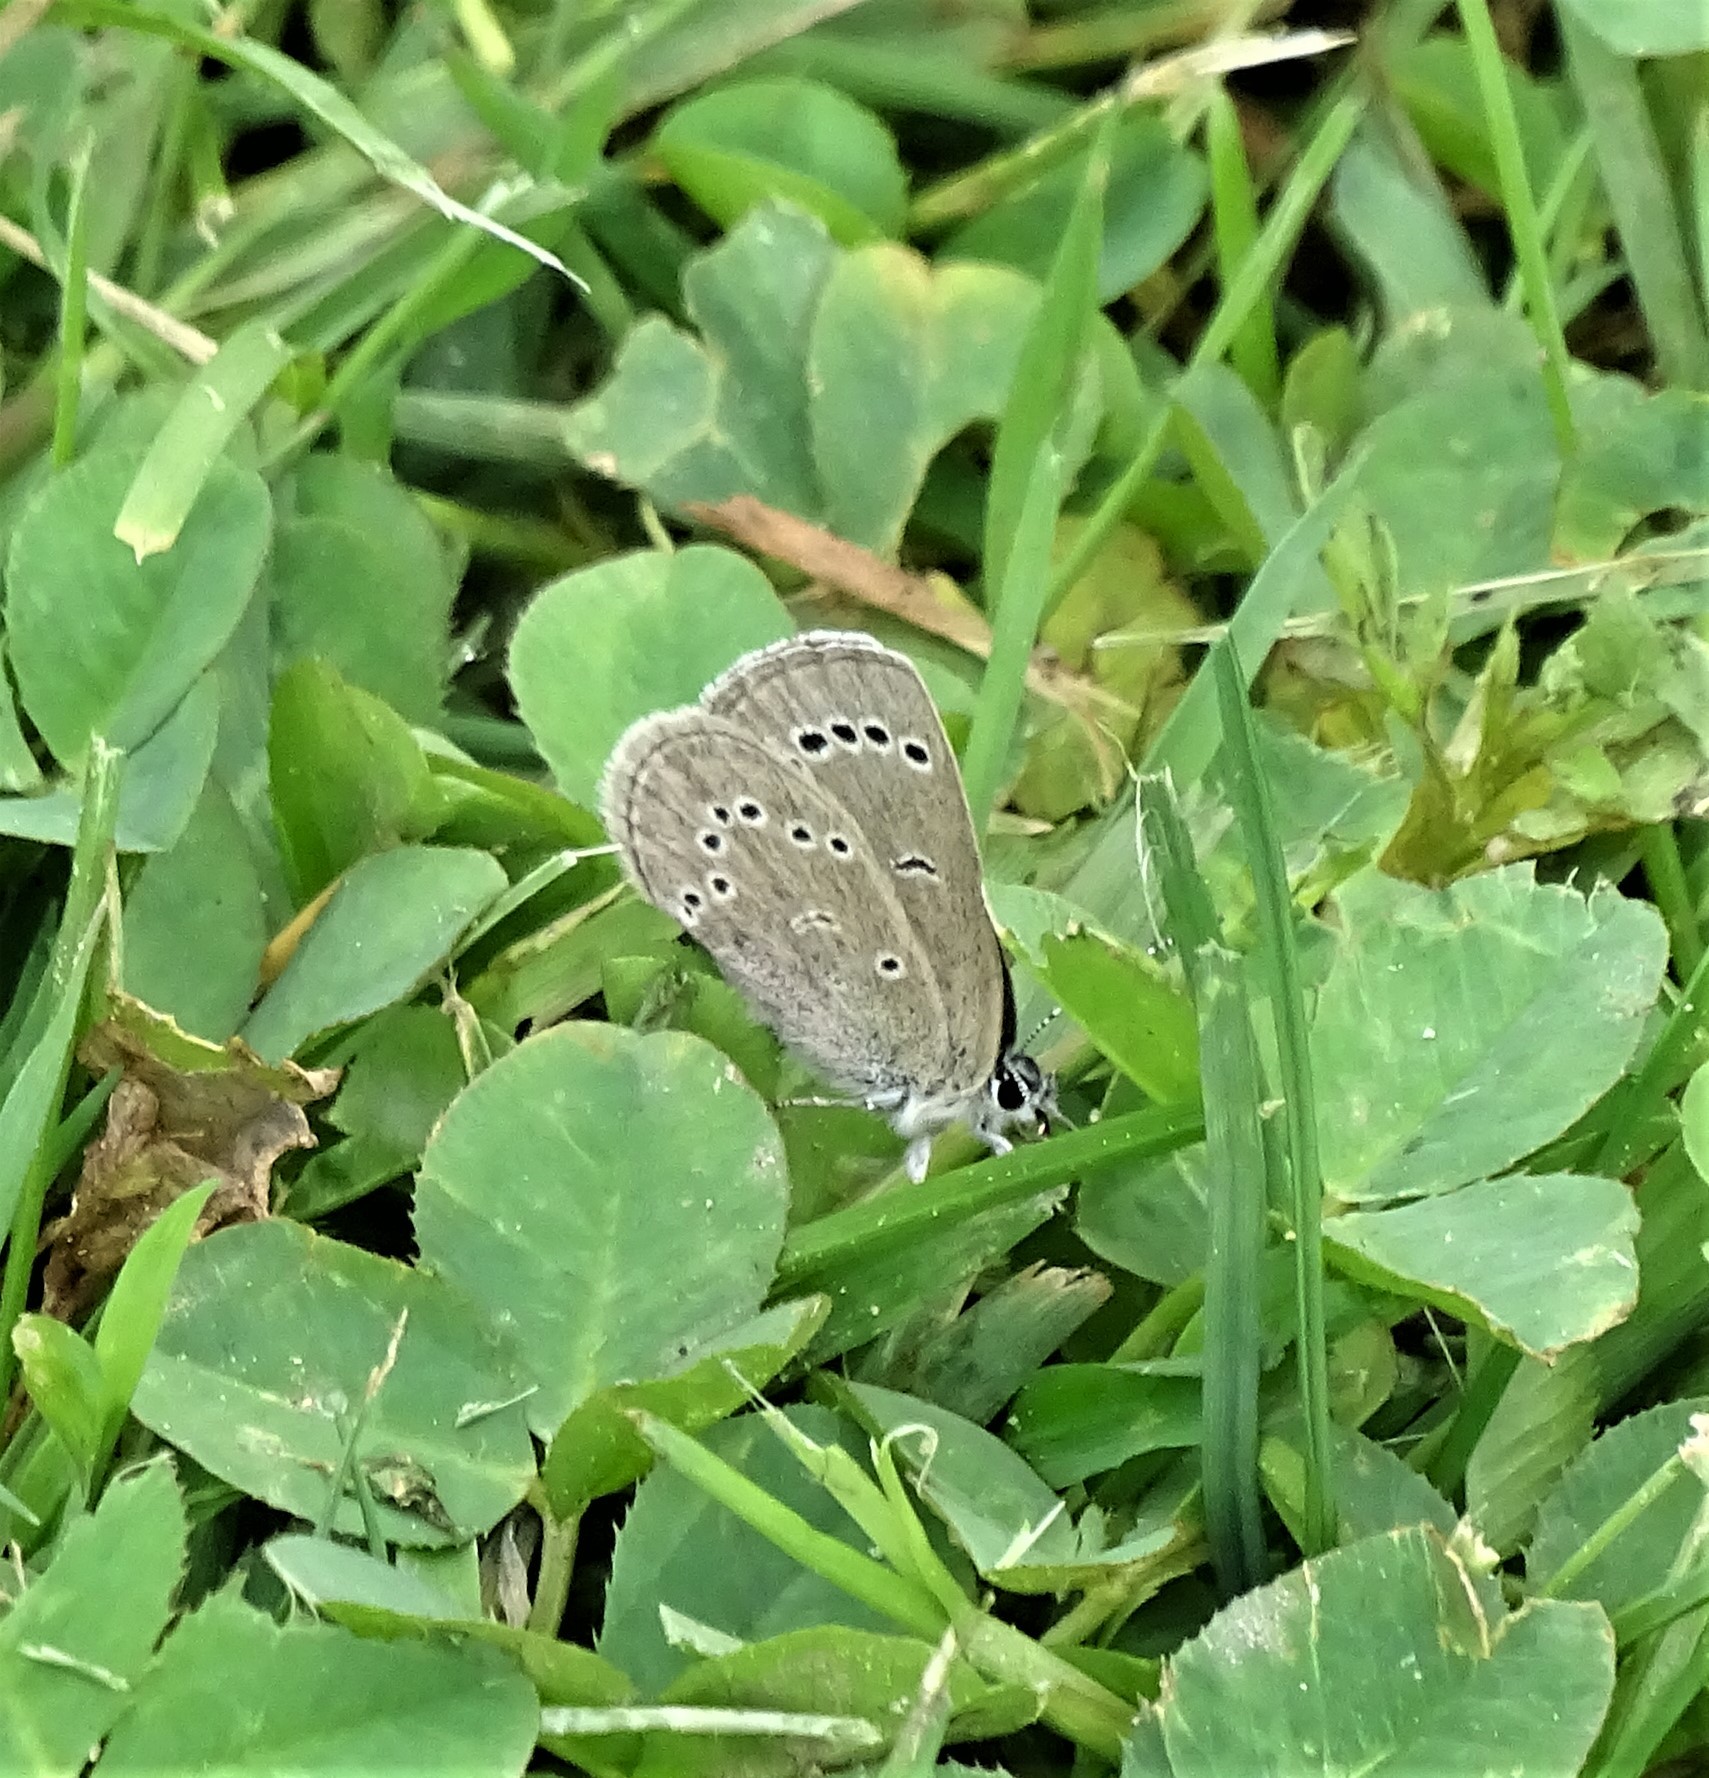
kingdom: Animalia
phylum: Arthropoda
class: Insecta
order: Lepidoptera
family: Lycaenidae
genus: Glaucopsyche
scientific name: Glaucopsyche lygdamus
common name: Silvery blue
